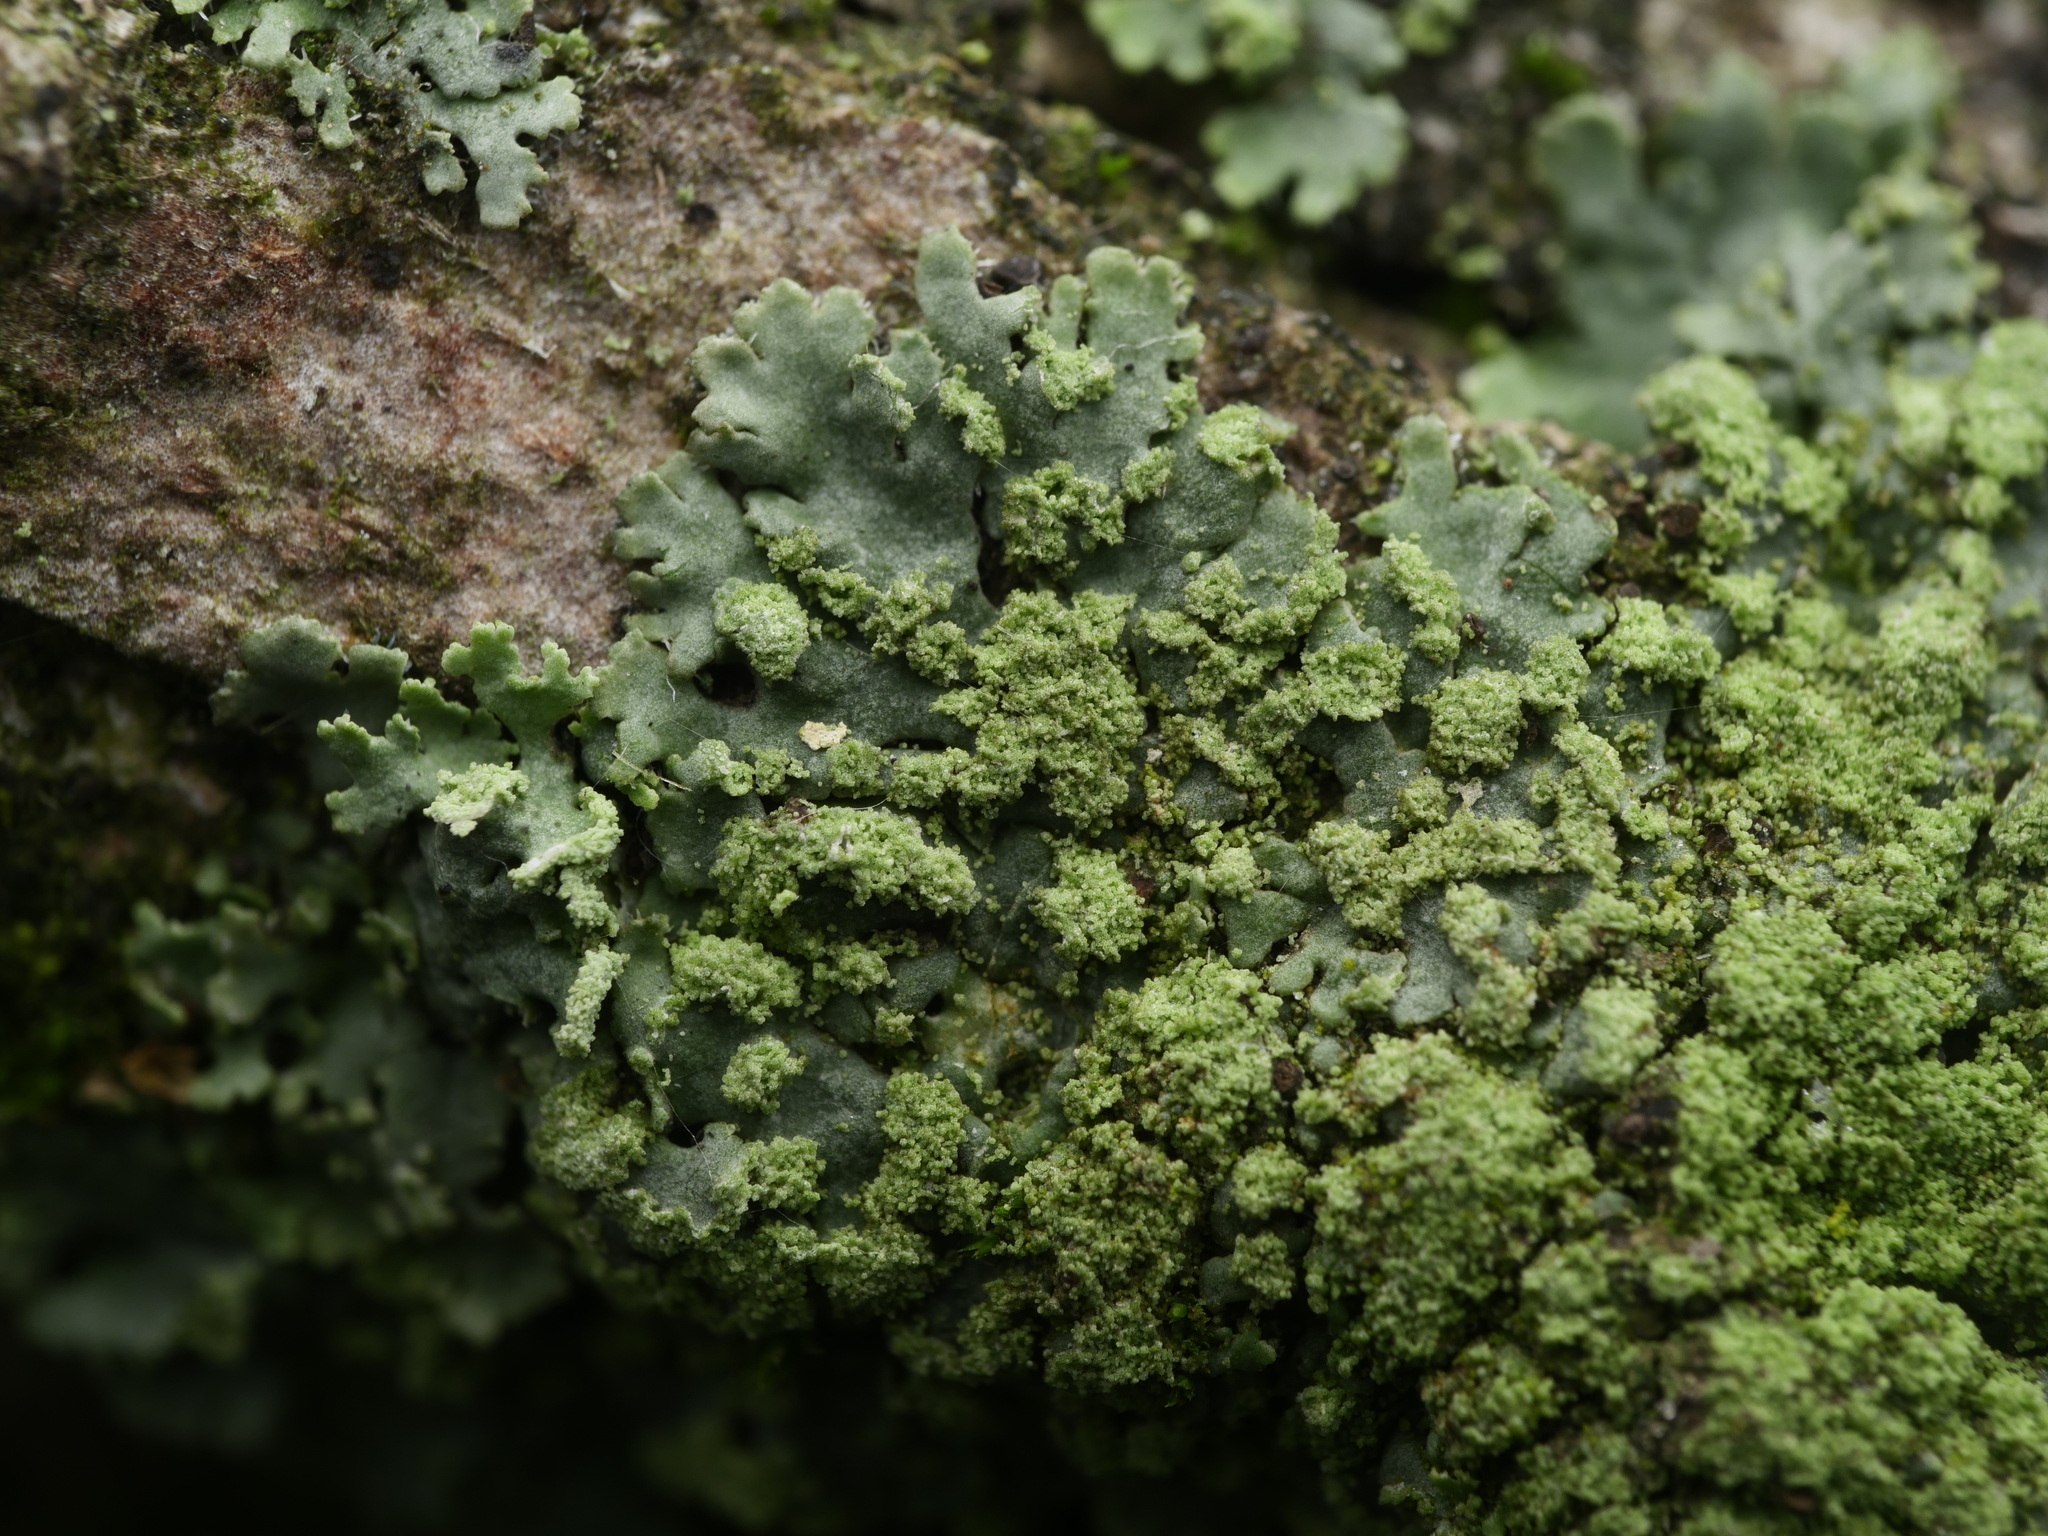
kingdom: Fungi
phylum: Ascomycota
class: Lecanoromycetes
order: Caliciales
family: Physciaceae
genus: Phaeophyscia
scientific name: Phaeophyscia orbicularis
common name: Mealy shadow lichen
